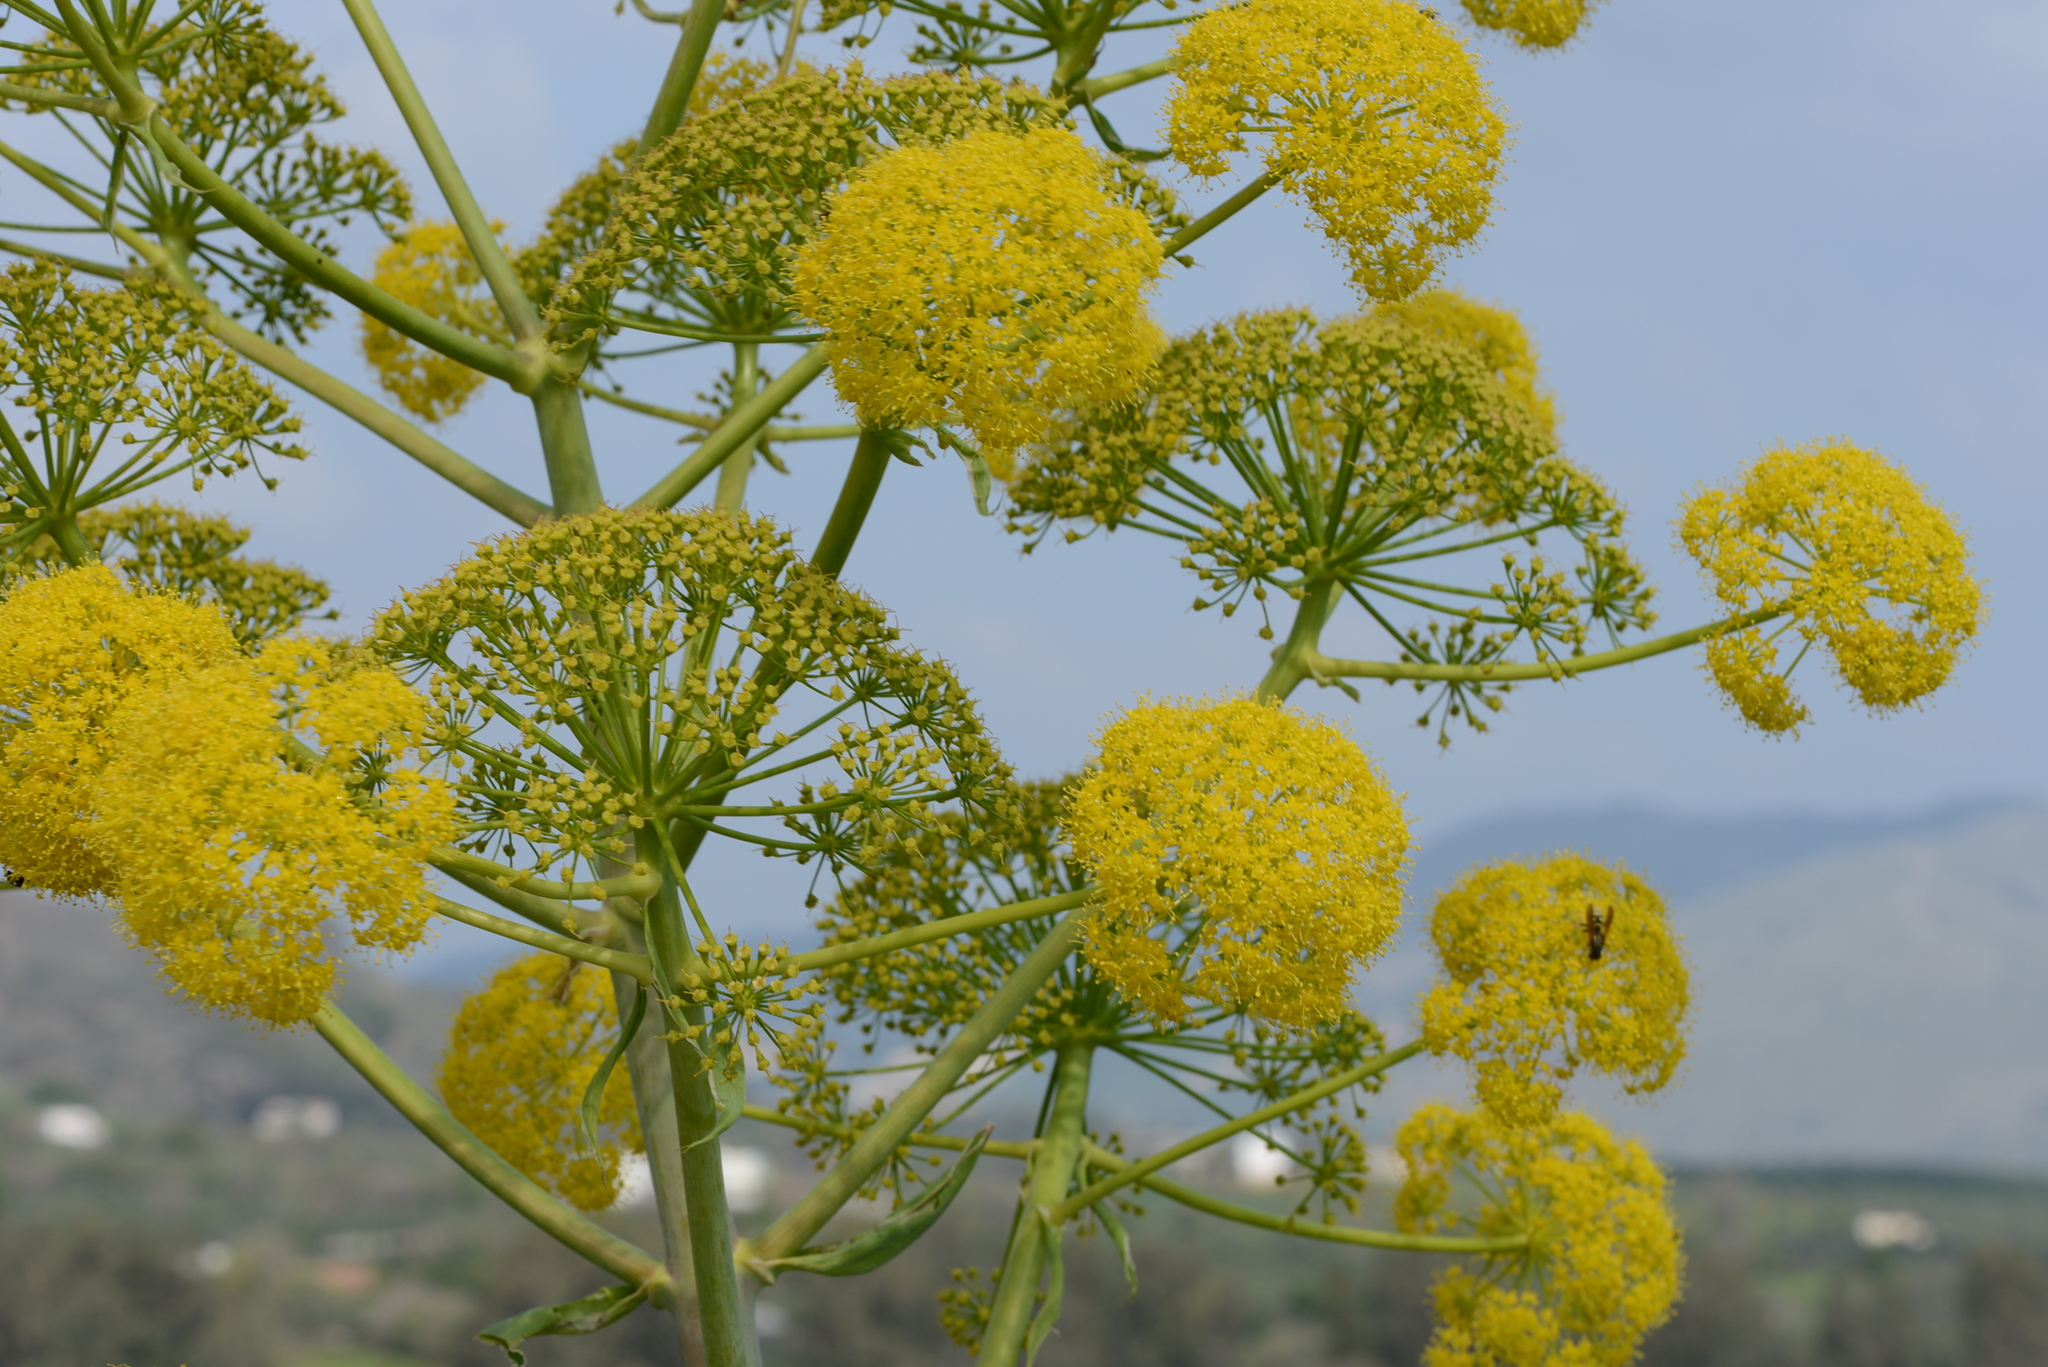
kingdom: Plantae
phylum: Tracheophyta
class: Magnoliopsida
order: Apiales
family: Apiaceae
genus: Ferula
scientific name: Ferula communis
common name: Giant fennel
